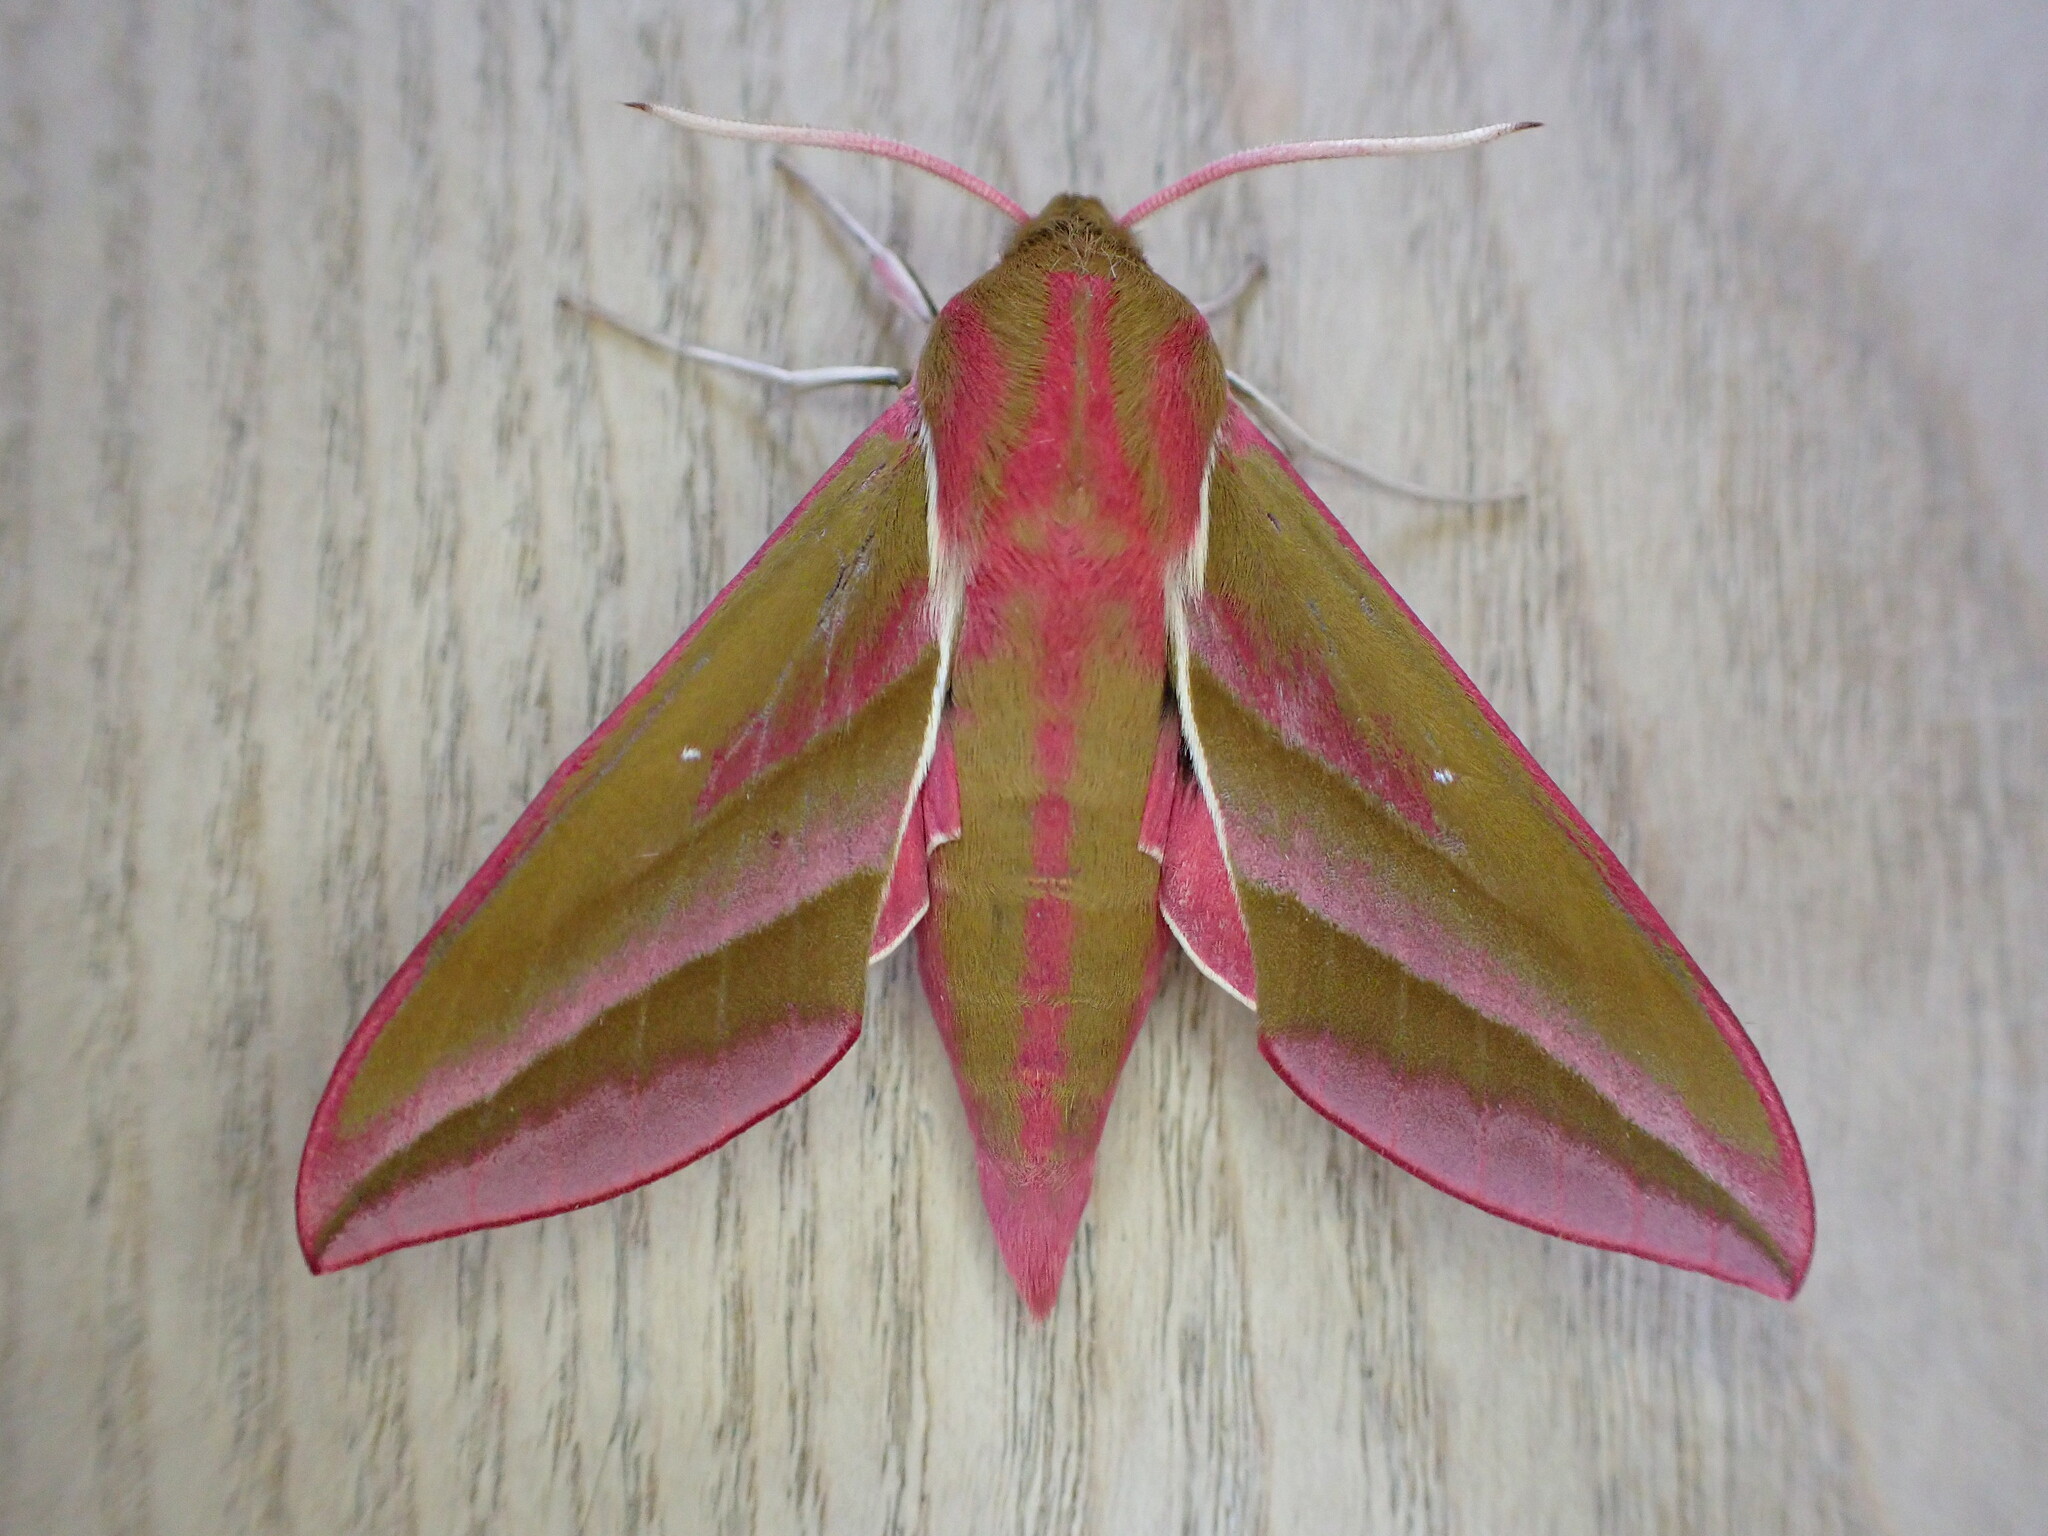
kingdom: Animalia
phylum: Arthropoda
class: Insecta
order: Lepidoptera
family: Sphingidae
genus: Deilephila
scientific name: Deilephila elpenor
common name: Elephant hawk-moth
